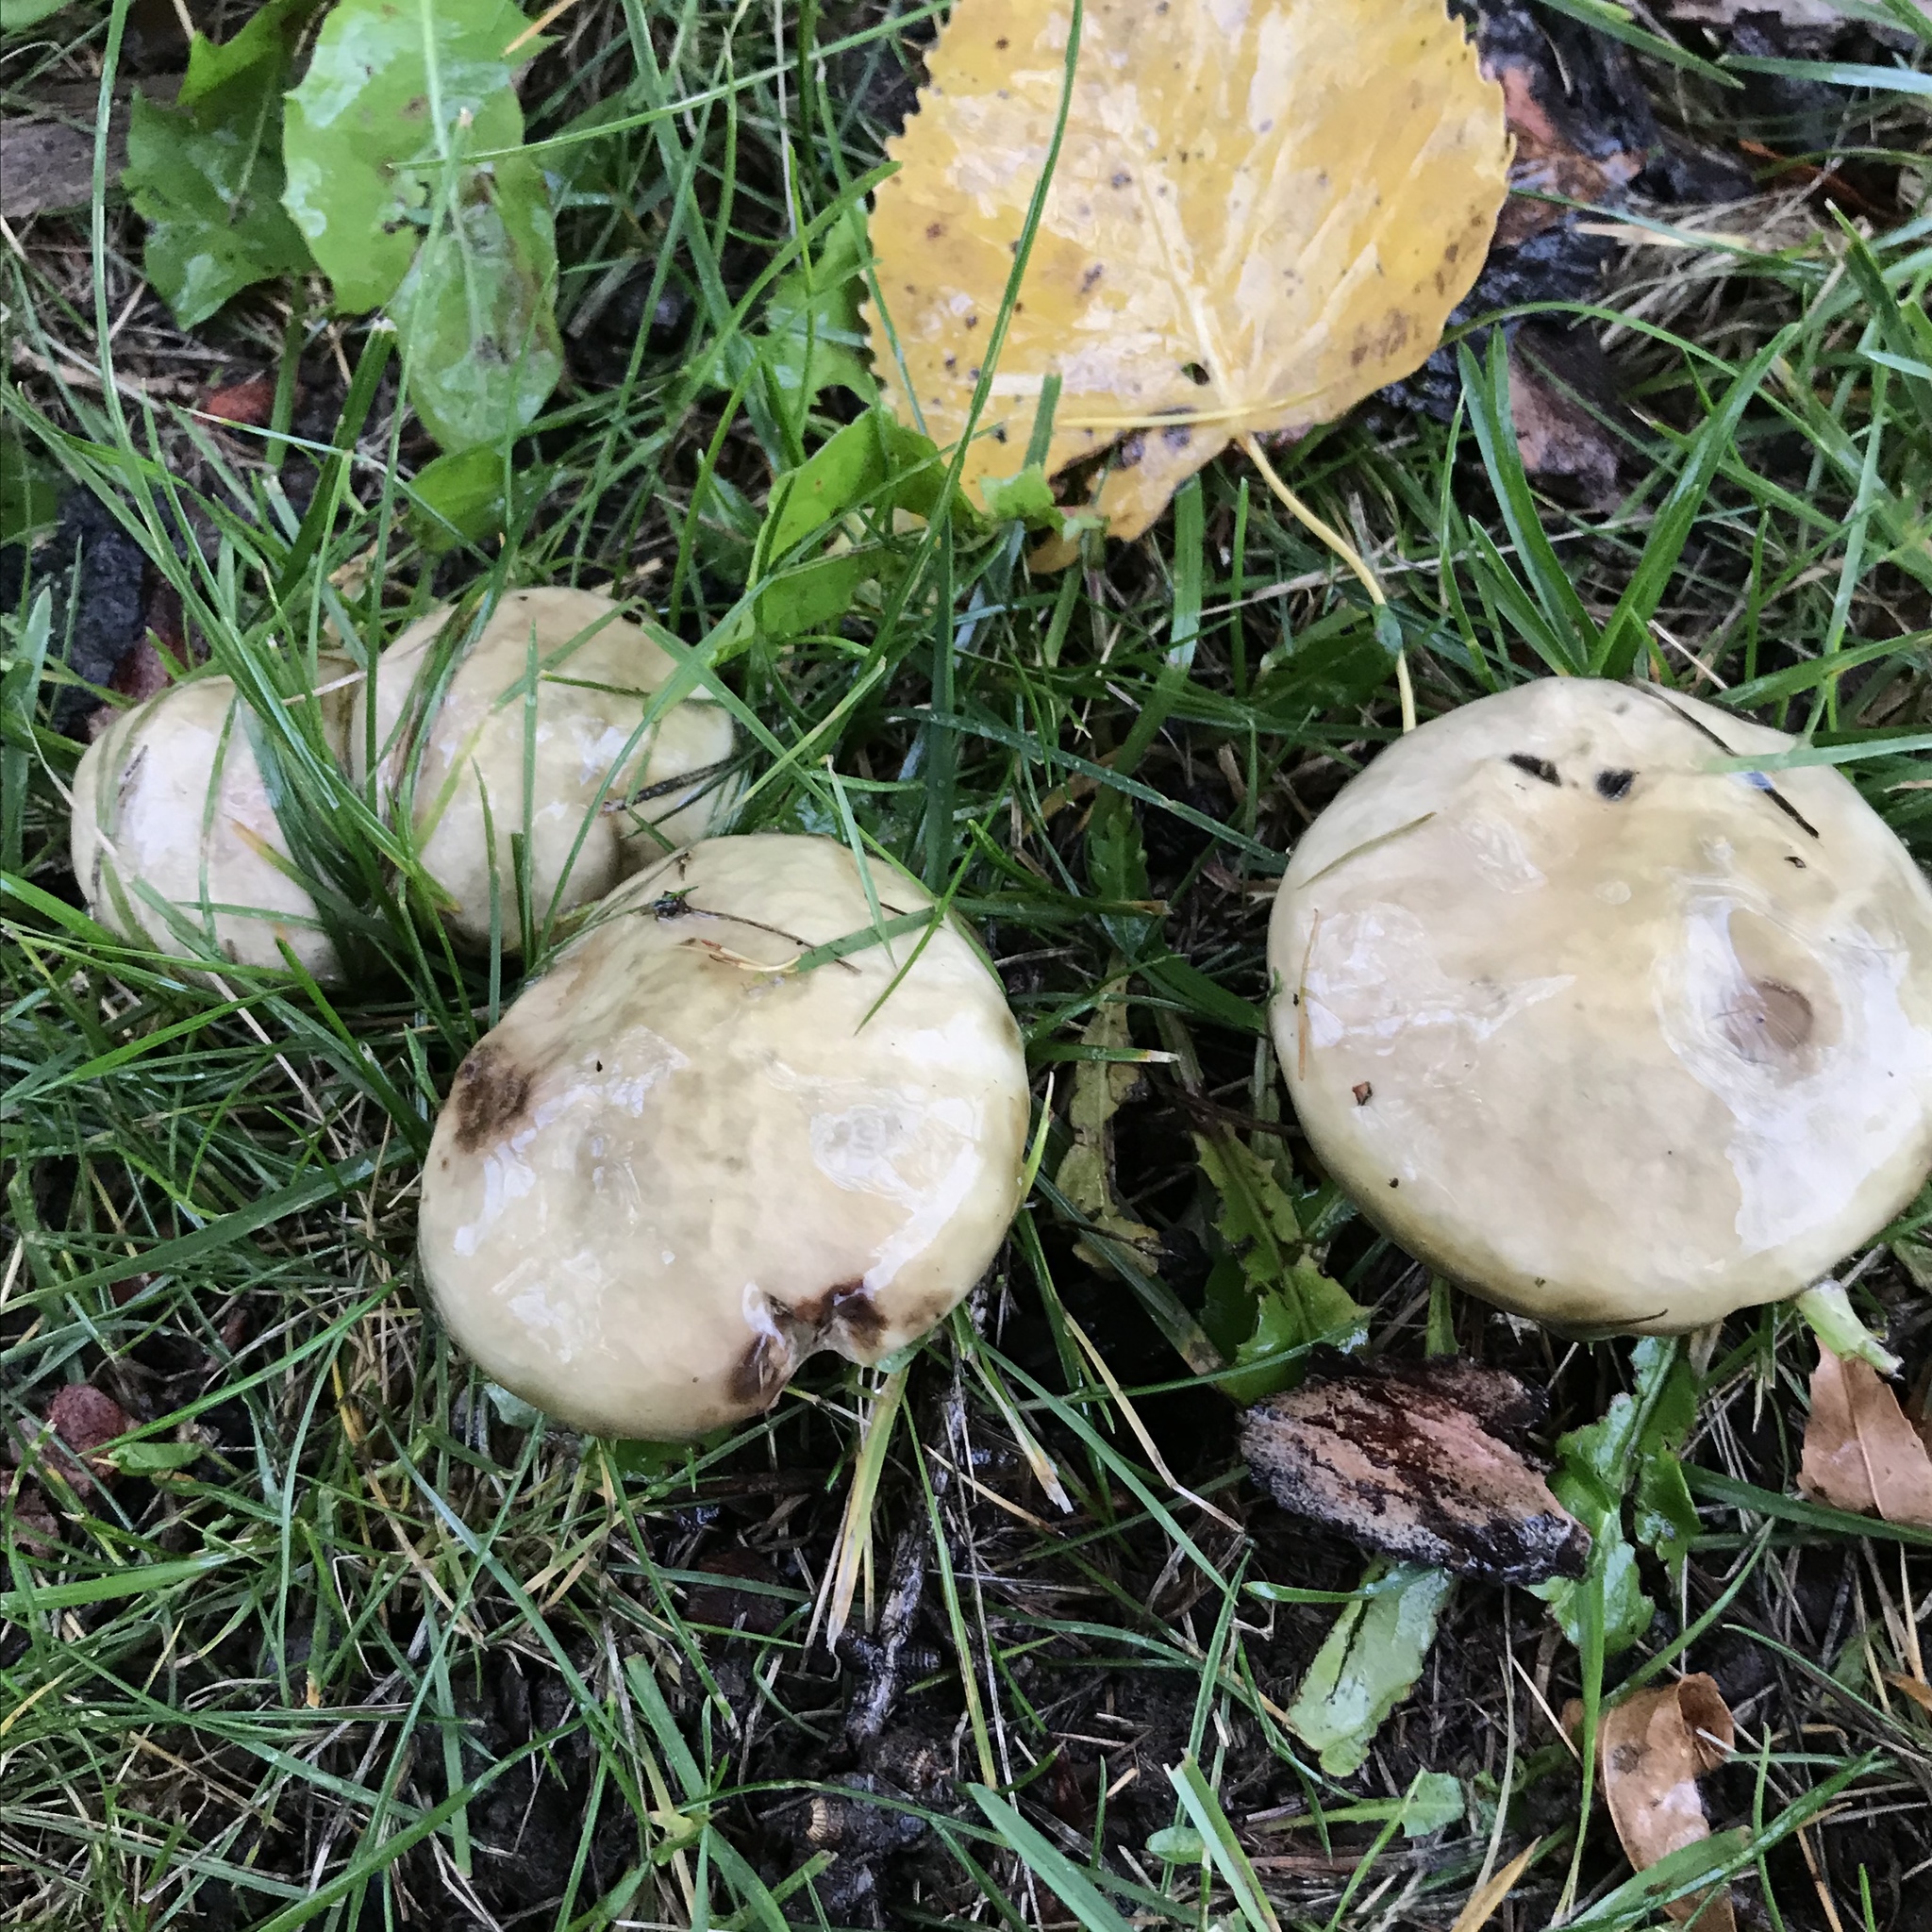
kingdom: Fungi
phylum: Basidiomycota
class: Agaricomycetes
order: Boletales
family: Suillaceae
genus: Suillus
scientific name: Suillus
